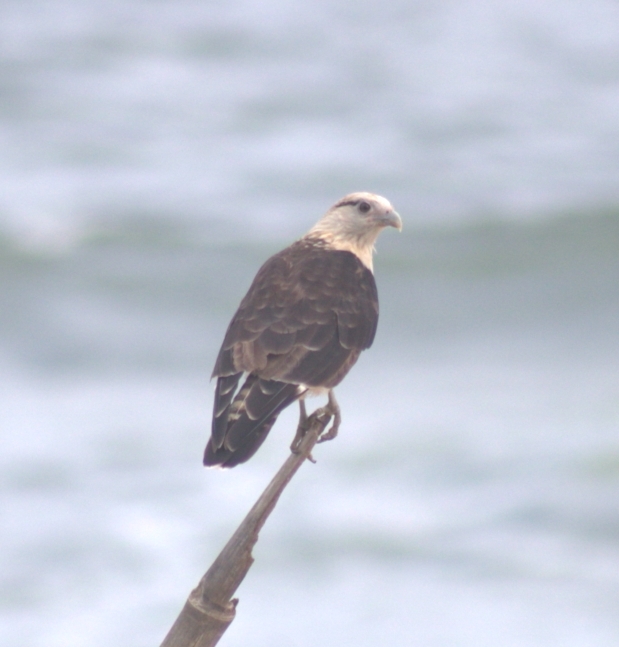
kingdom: Animalia
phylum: Chordata
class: Aves
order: Falconiformes
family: Falconidae
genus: Daptrius
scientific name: Daptrius
